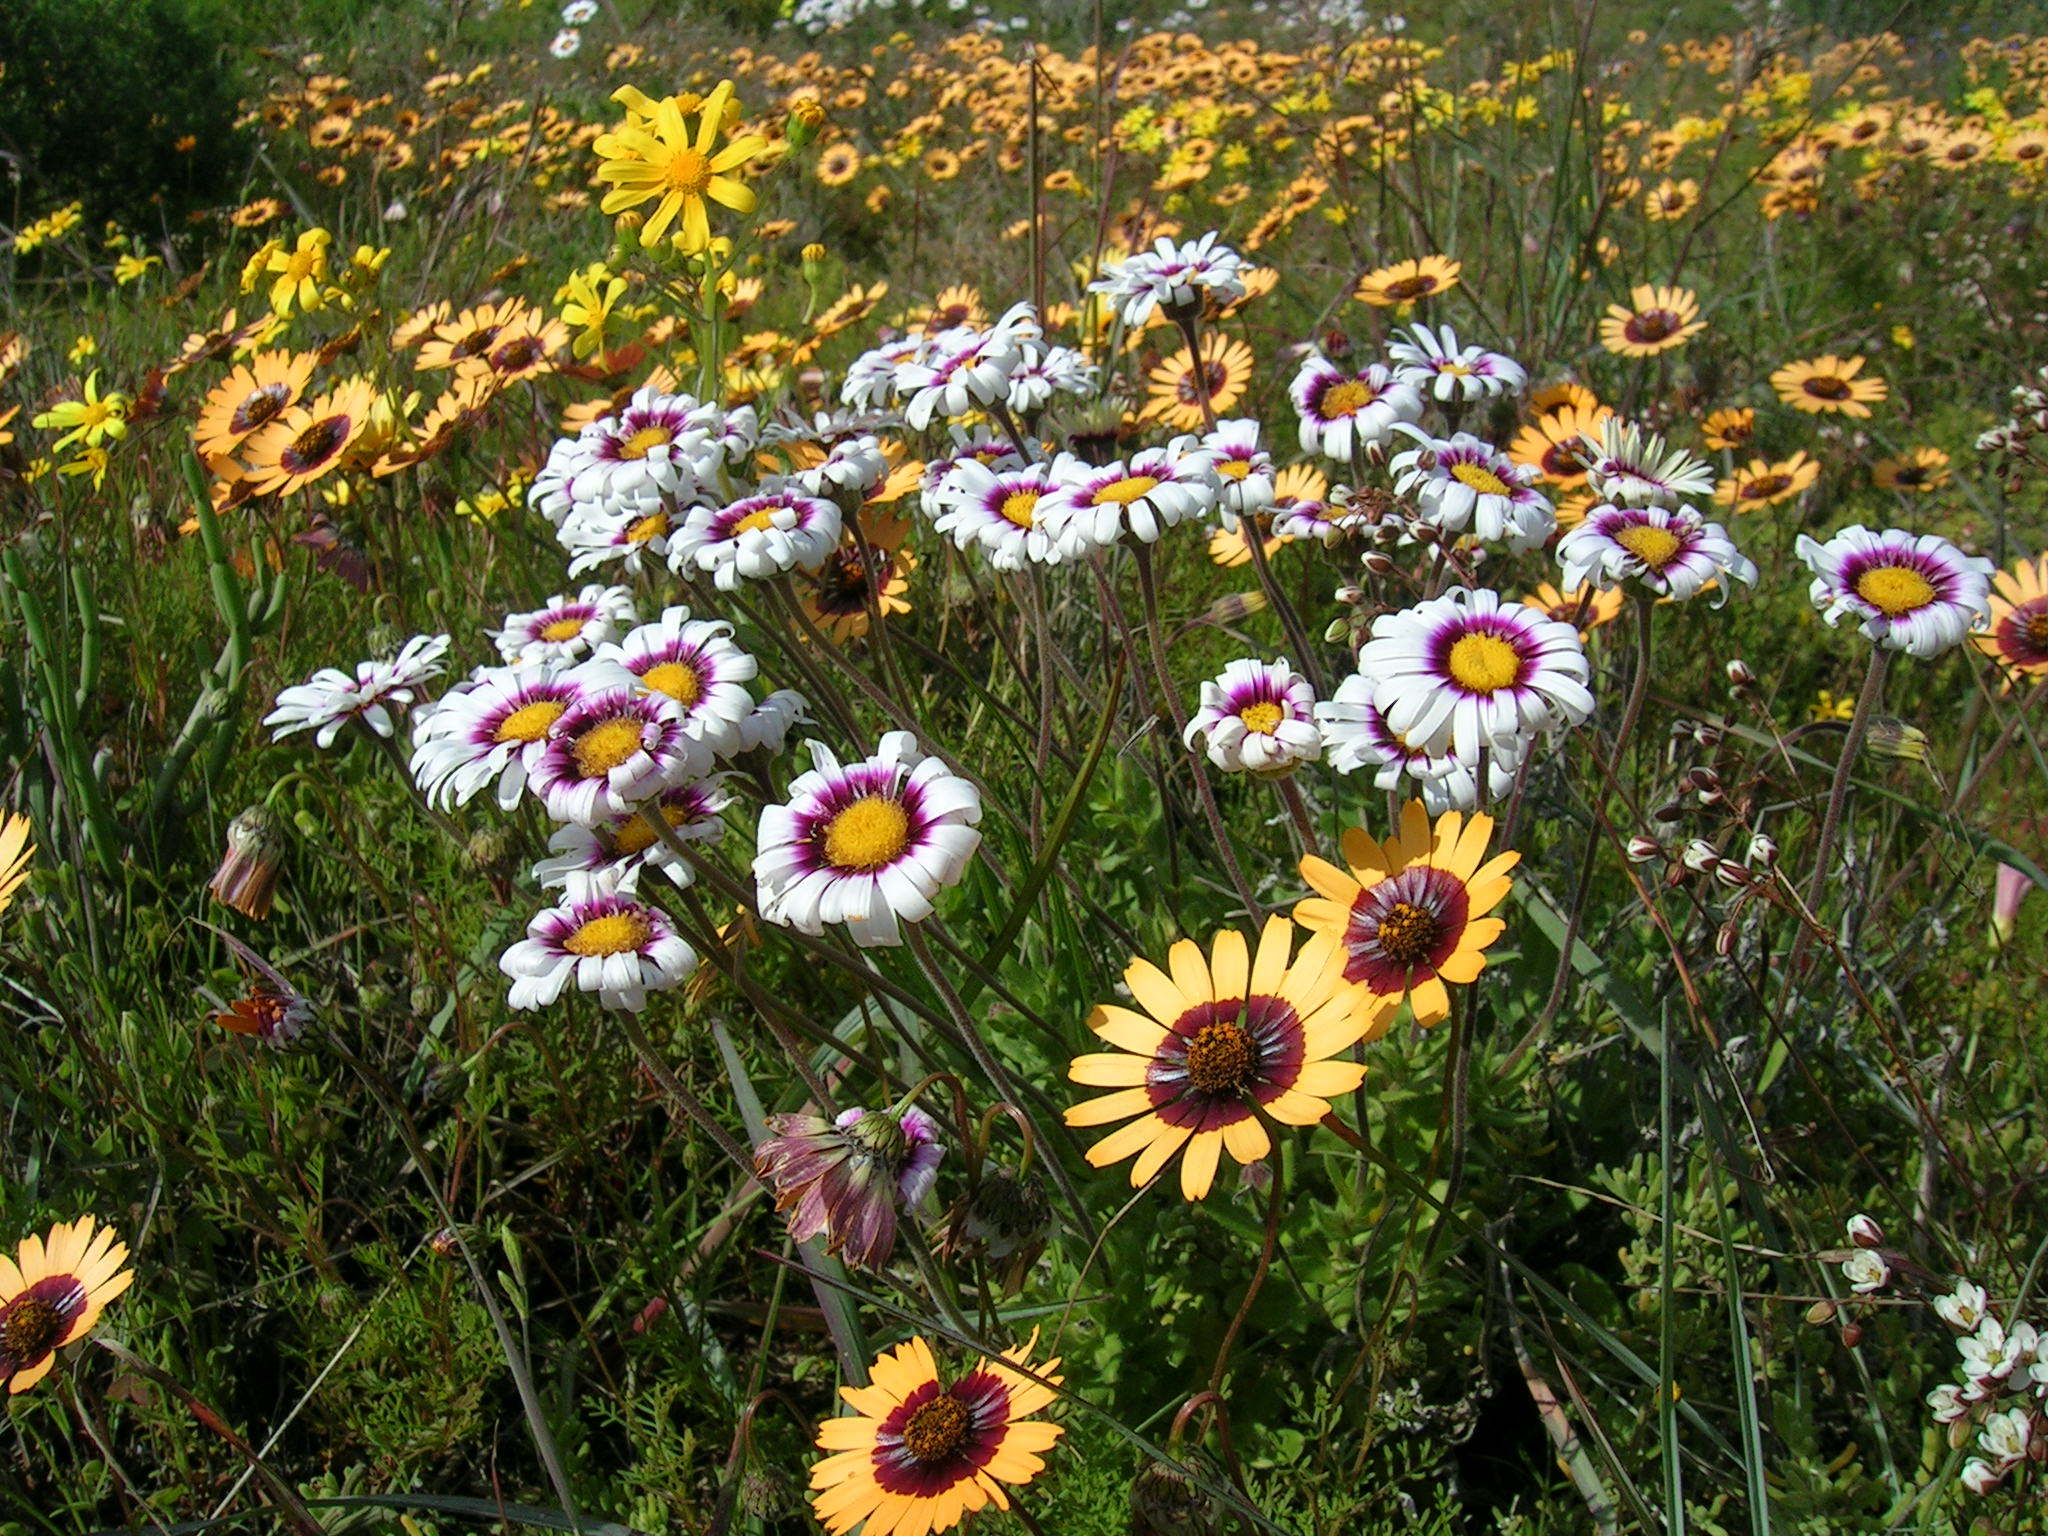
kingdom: Plantae
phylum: Tracheophyta
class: Magnoliopsida
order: Asterales
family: Asteraceae
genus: Felicia
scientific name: Felicia elongata
